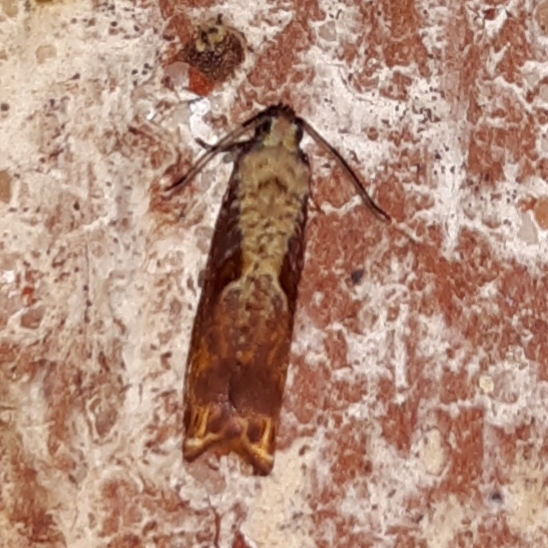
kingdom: Animalia
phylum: Arthropoda
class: Insecta
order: Lepidoptera
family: Tortricidae
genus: Episimus
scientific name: Episimus tyrius
